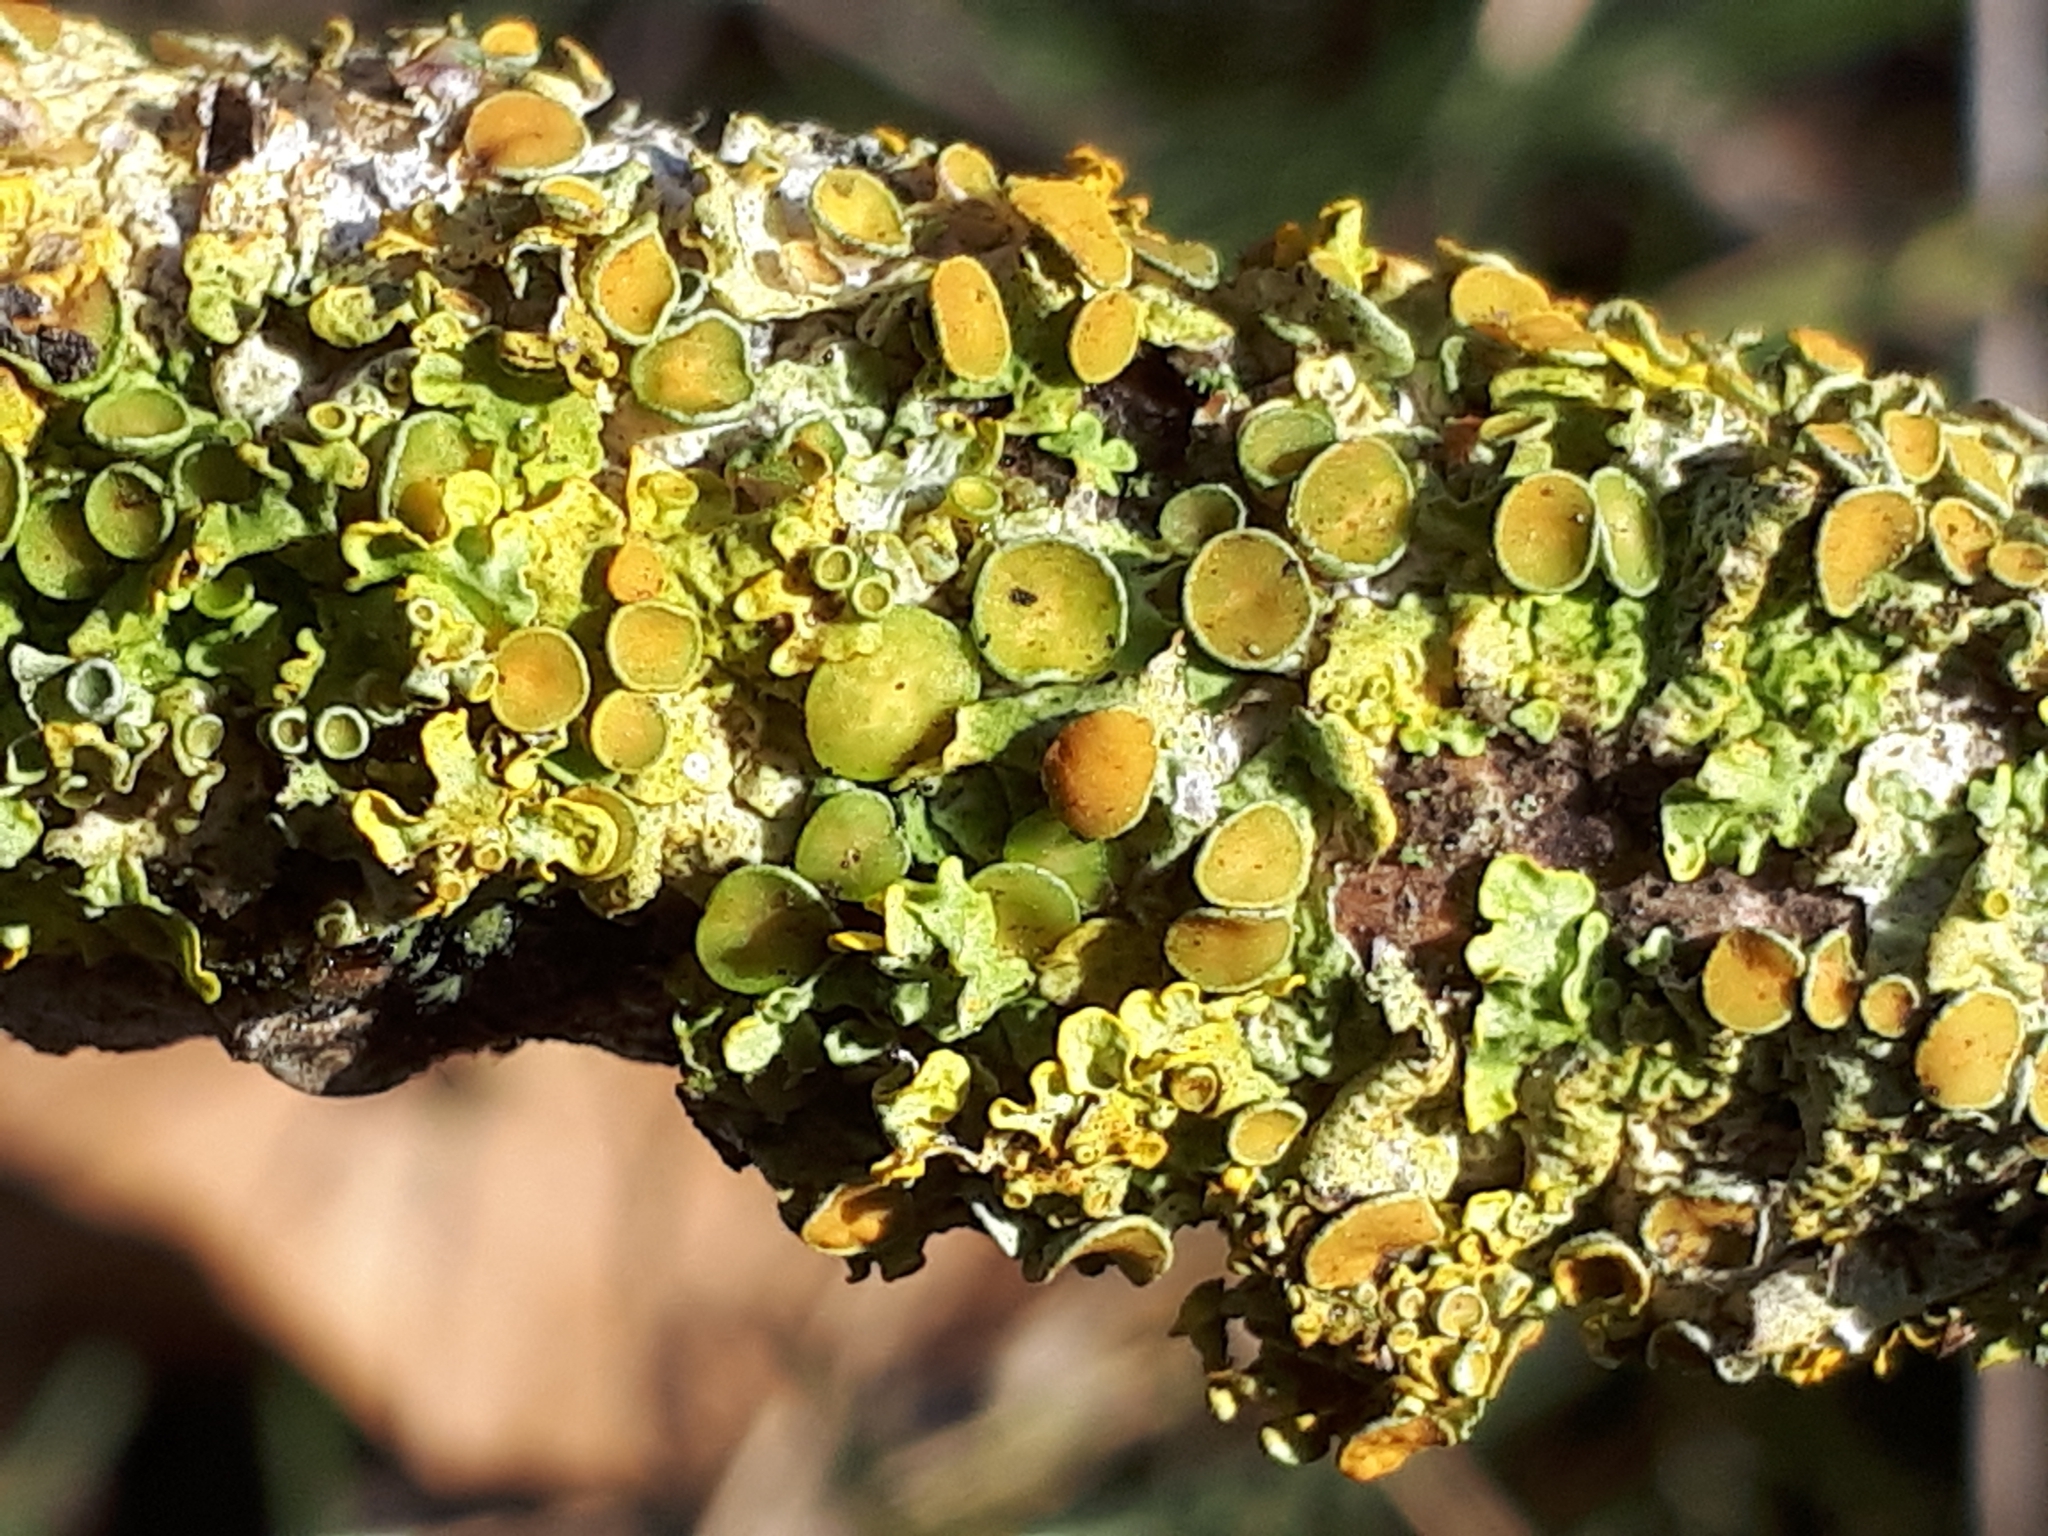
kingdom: Fungi
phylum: Ascomycota
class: Lecanoromycetes
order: Teloschistales
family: Teloschistaceae
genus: Xanthoria
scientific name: Xanthoria parietina
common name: Common orange lichen
